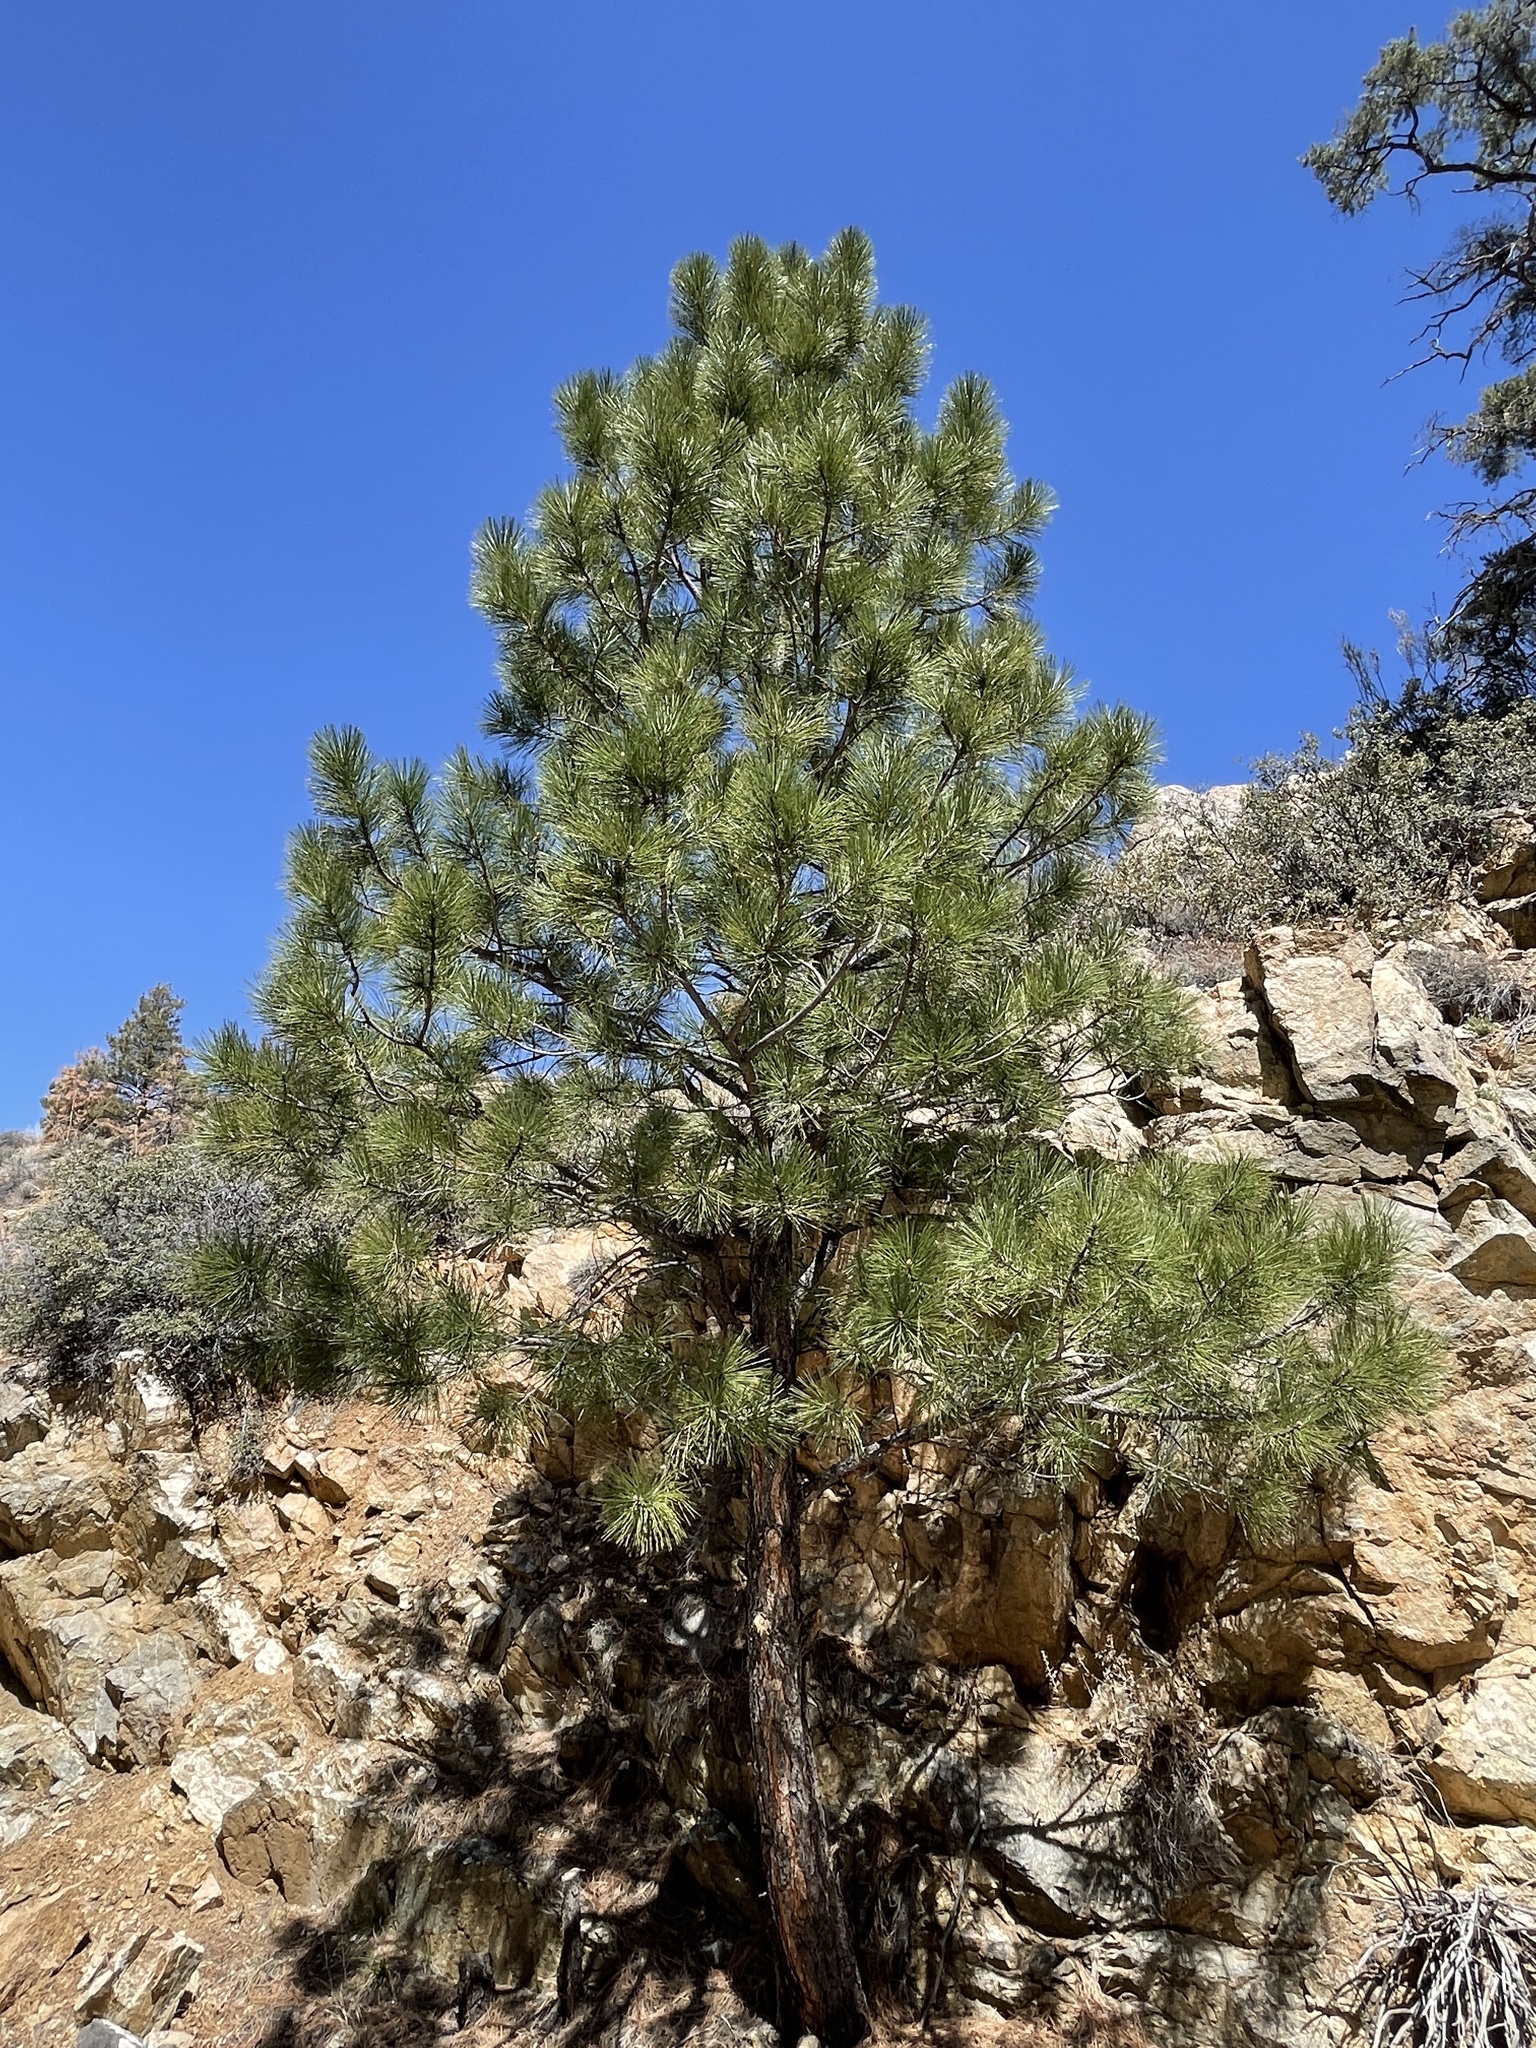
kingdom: Plantae
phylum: Tracheophyta
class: Pinopsida
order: Pinales
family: Pinaceae
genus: Pinus
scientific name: Pinus ponderosa
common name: Western yellow-pine
